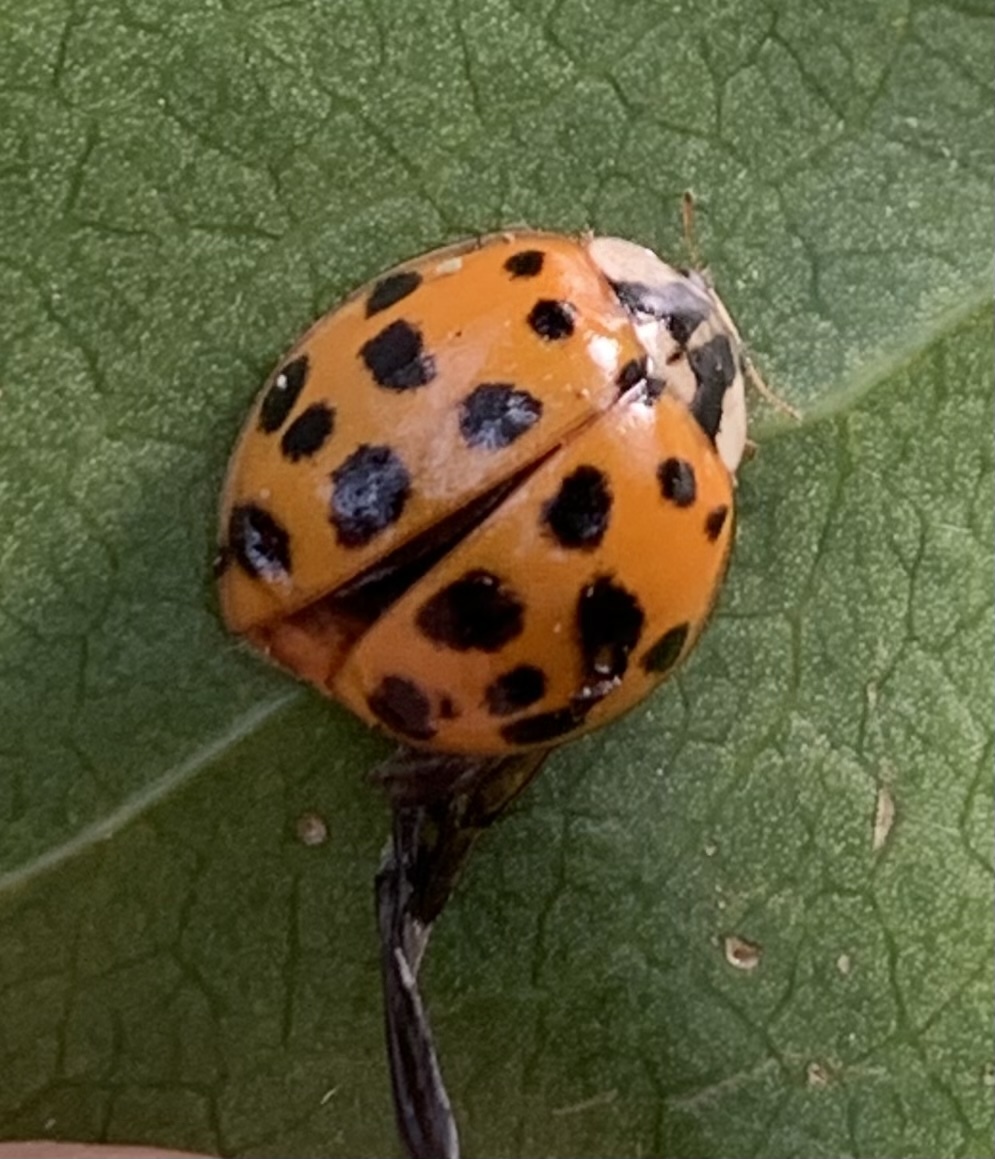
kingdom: Animalia
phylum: Arthropoda
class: Insecta
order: Coleoptera
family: Coccinellidae
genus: Harmonia
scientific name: Harmonia axyridis
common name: Harlequin ladybird
